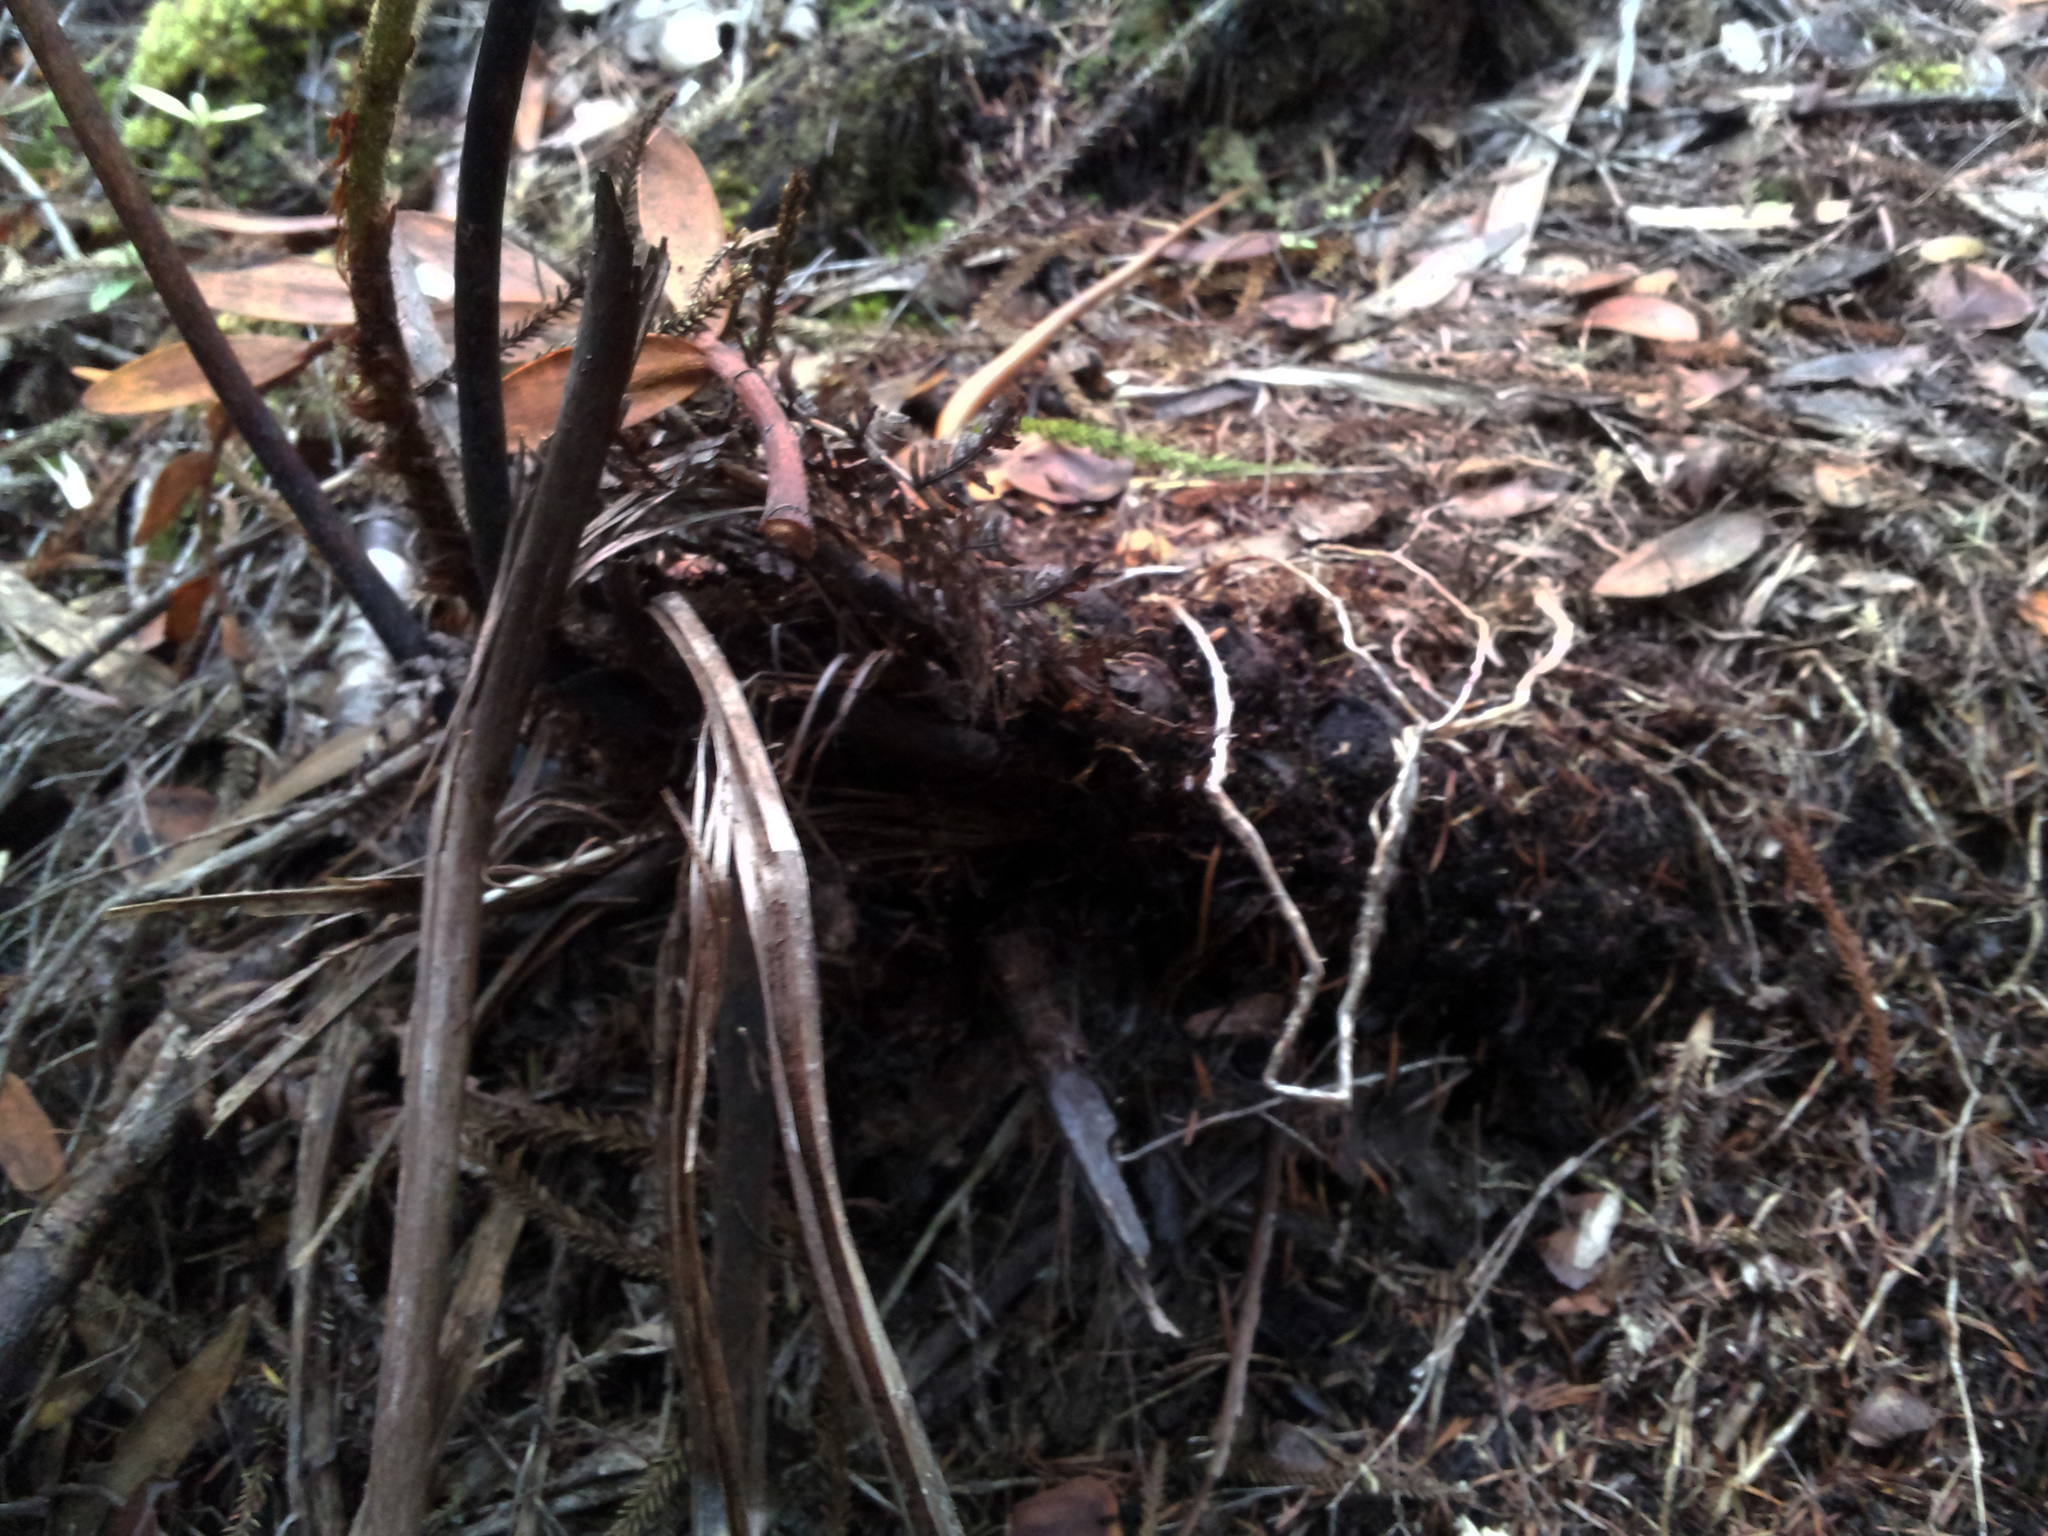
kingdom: Plantae
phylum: Tracheophyta
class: Polypodiopsida
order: Cyatheales
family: Cyatheaceae
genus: Alsophila
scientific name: Alsophila dealbata
